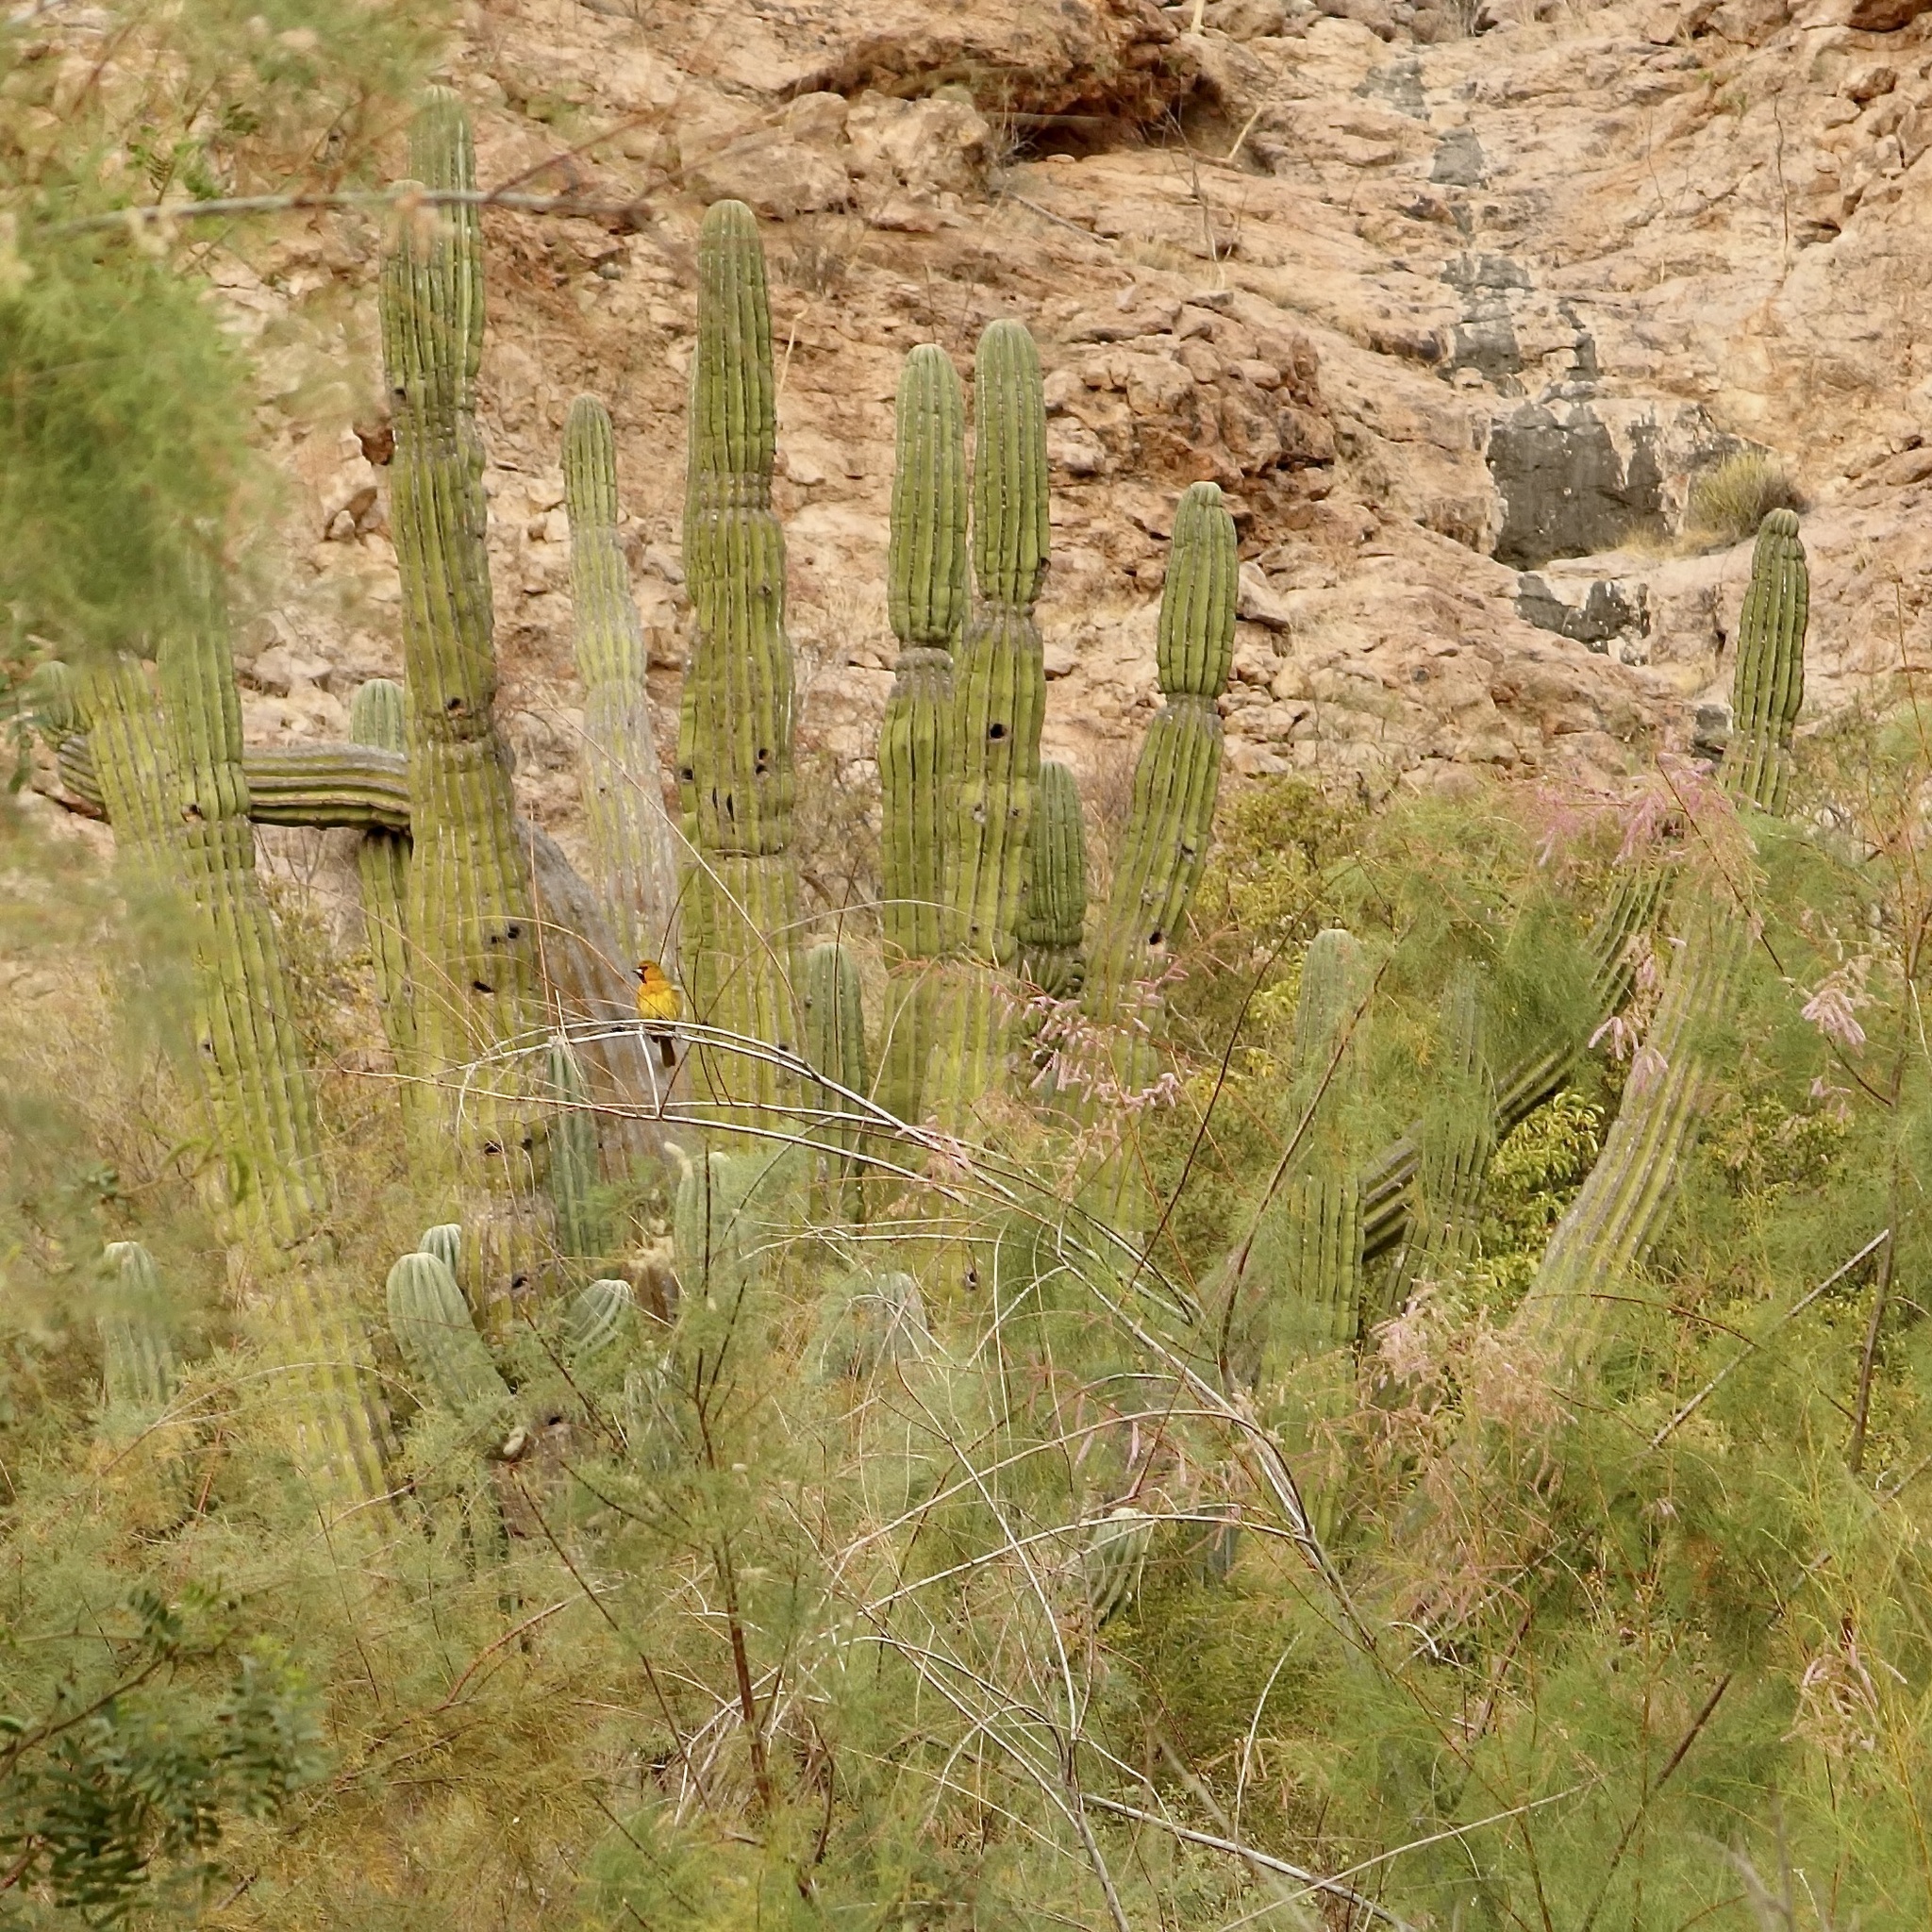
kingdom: Plantae
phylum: Tracheophyta
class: Magnoliopsida
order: Caryophyllales
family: Cactaceae
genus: Pachycereus
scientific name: Pachycereus pringlei
